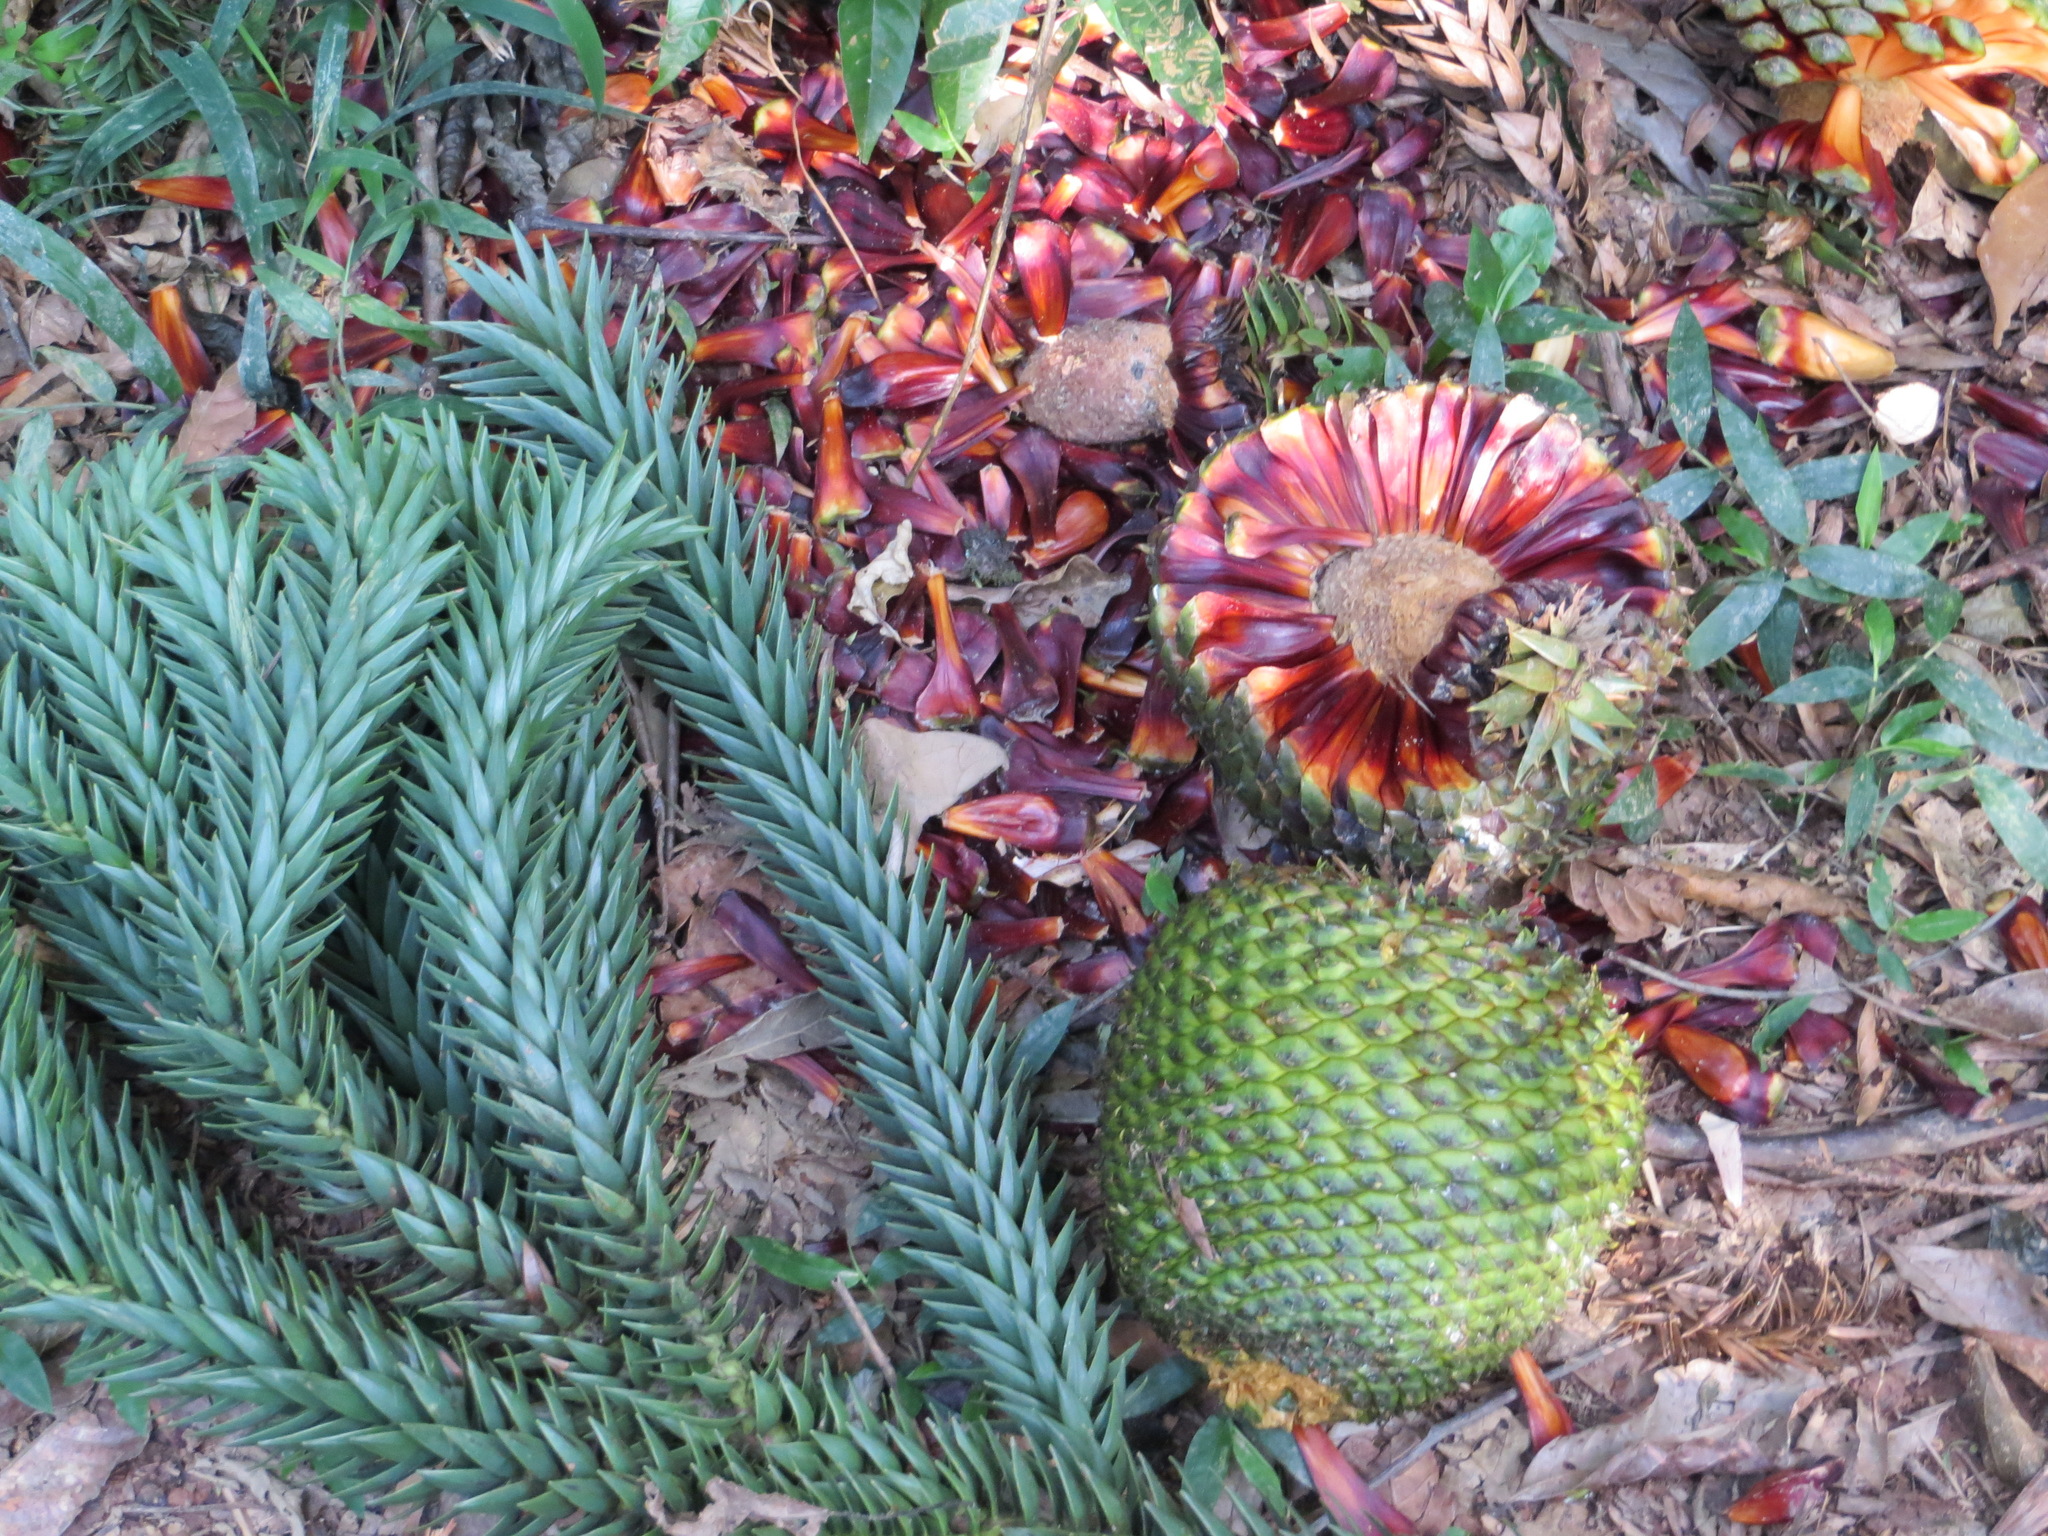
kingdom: Plantae
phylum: Tracheophyta
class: Pinopsida
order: Pinales
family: Araucariaceae
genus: Araucaria
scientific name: Araucaria angustifolia
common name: Candelabra tree
